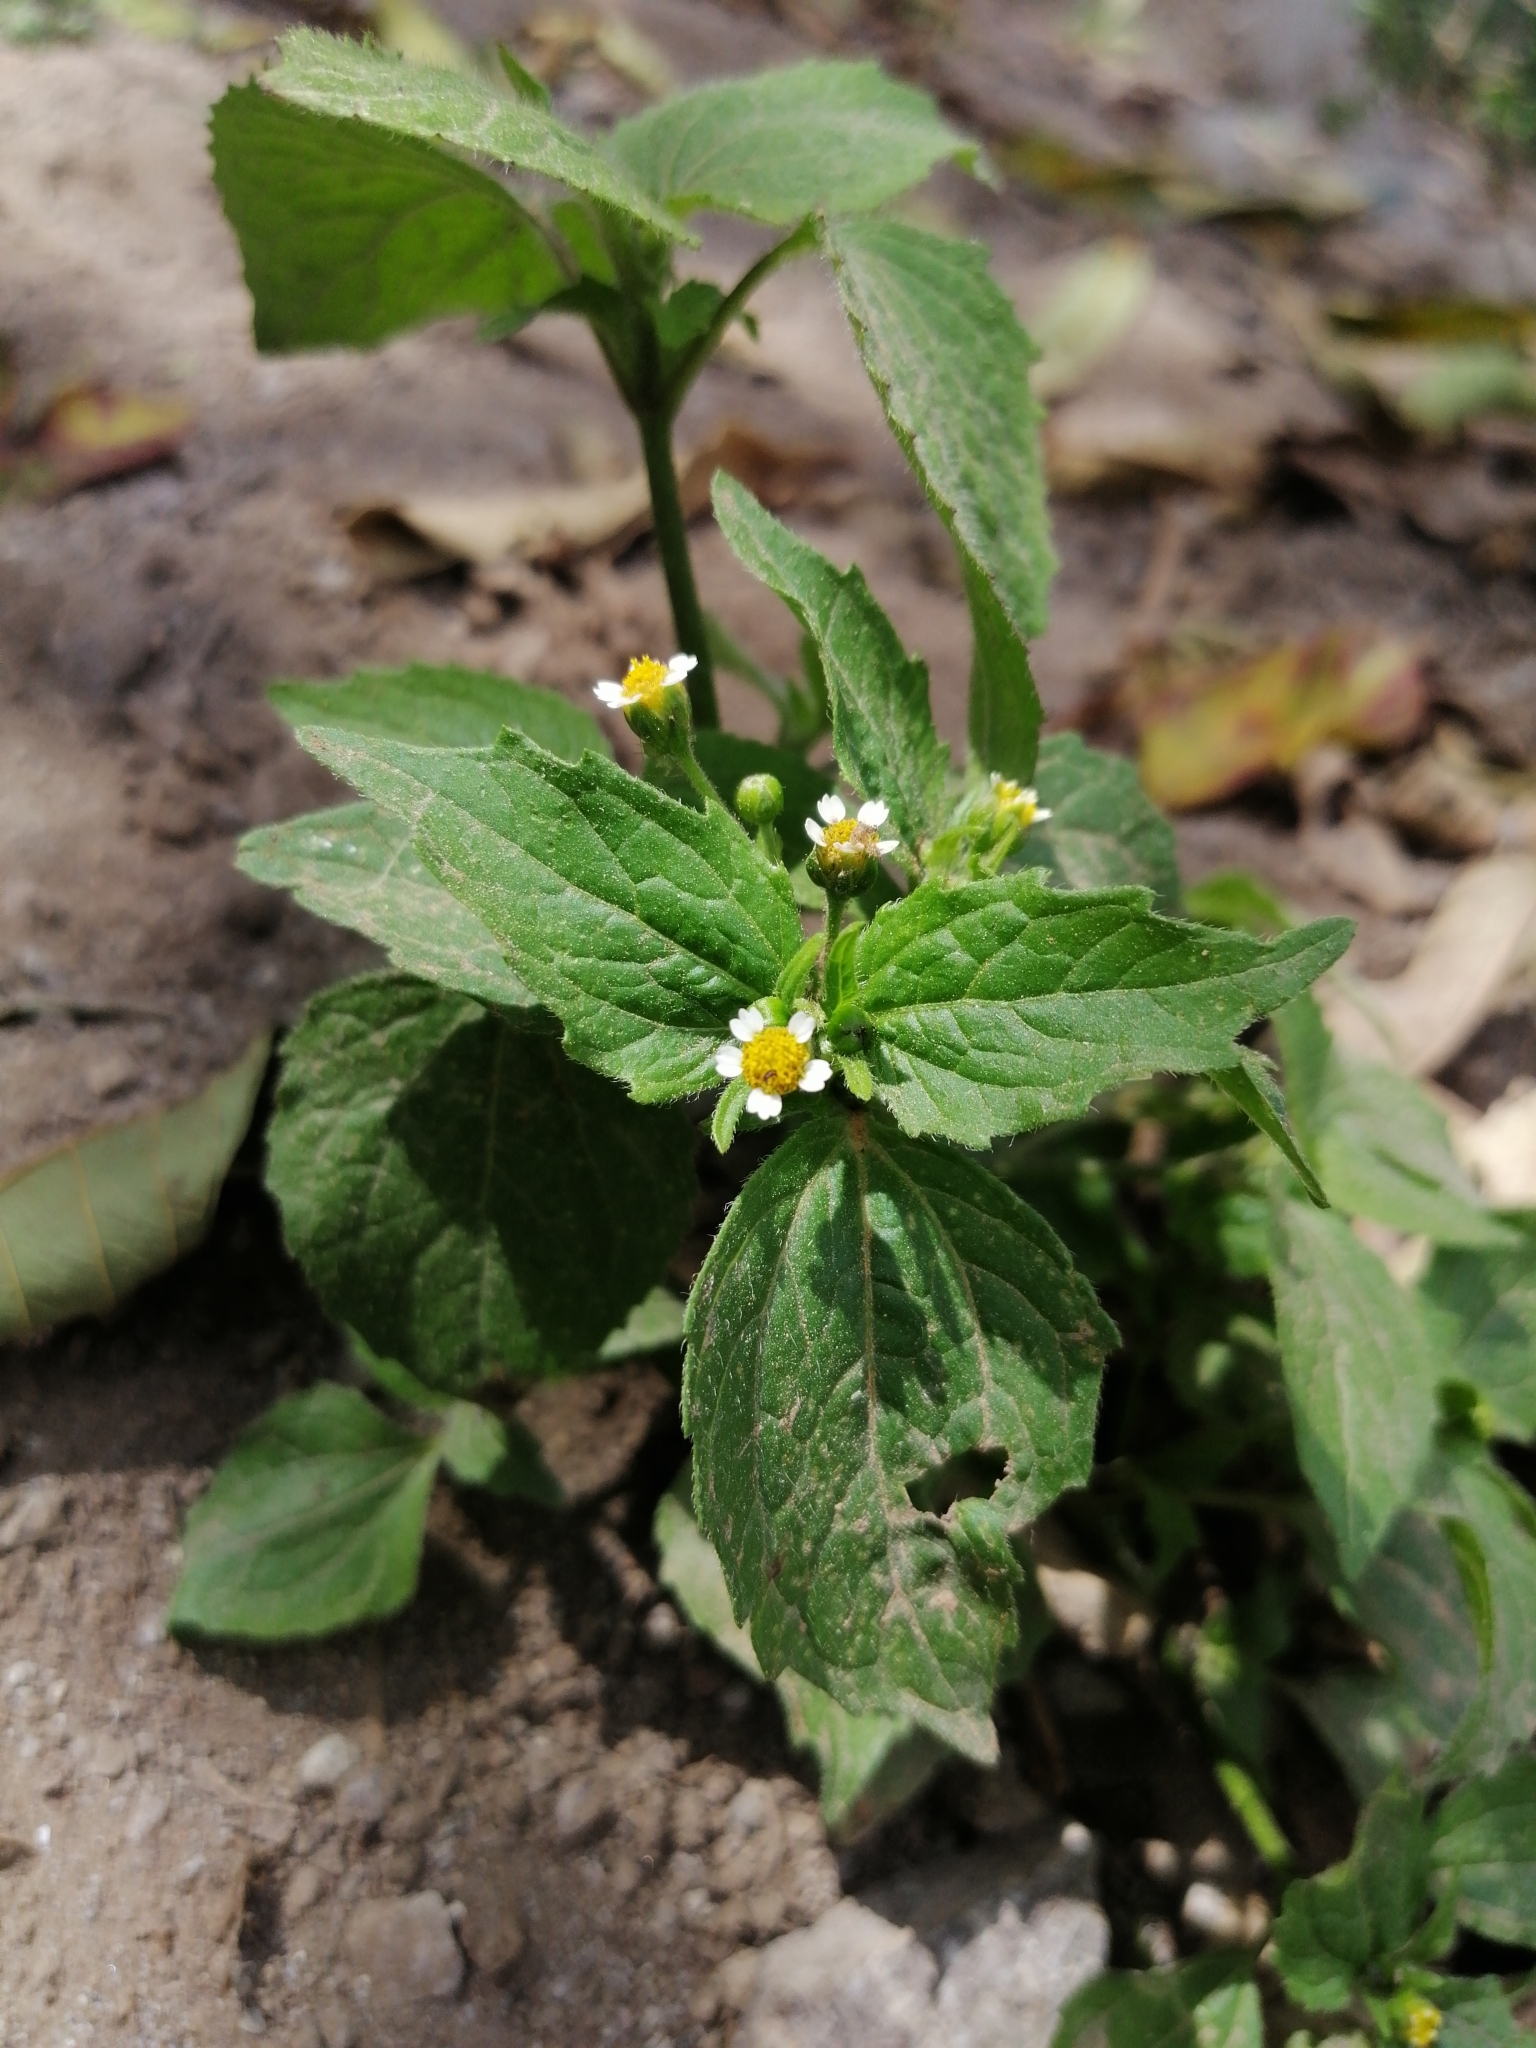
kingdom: Plantae
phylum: Tracheophyta
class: Magnoliopsida
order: Asterales
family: Asteraceae
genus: Galinsoga
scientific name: Galinsoga quadriradiata
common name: Shaggy soldier
